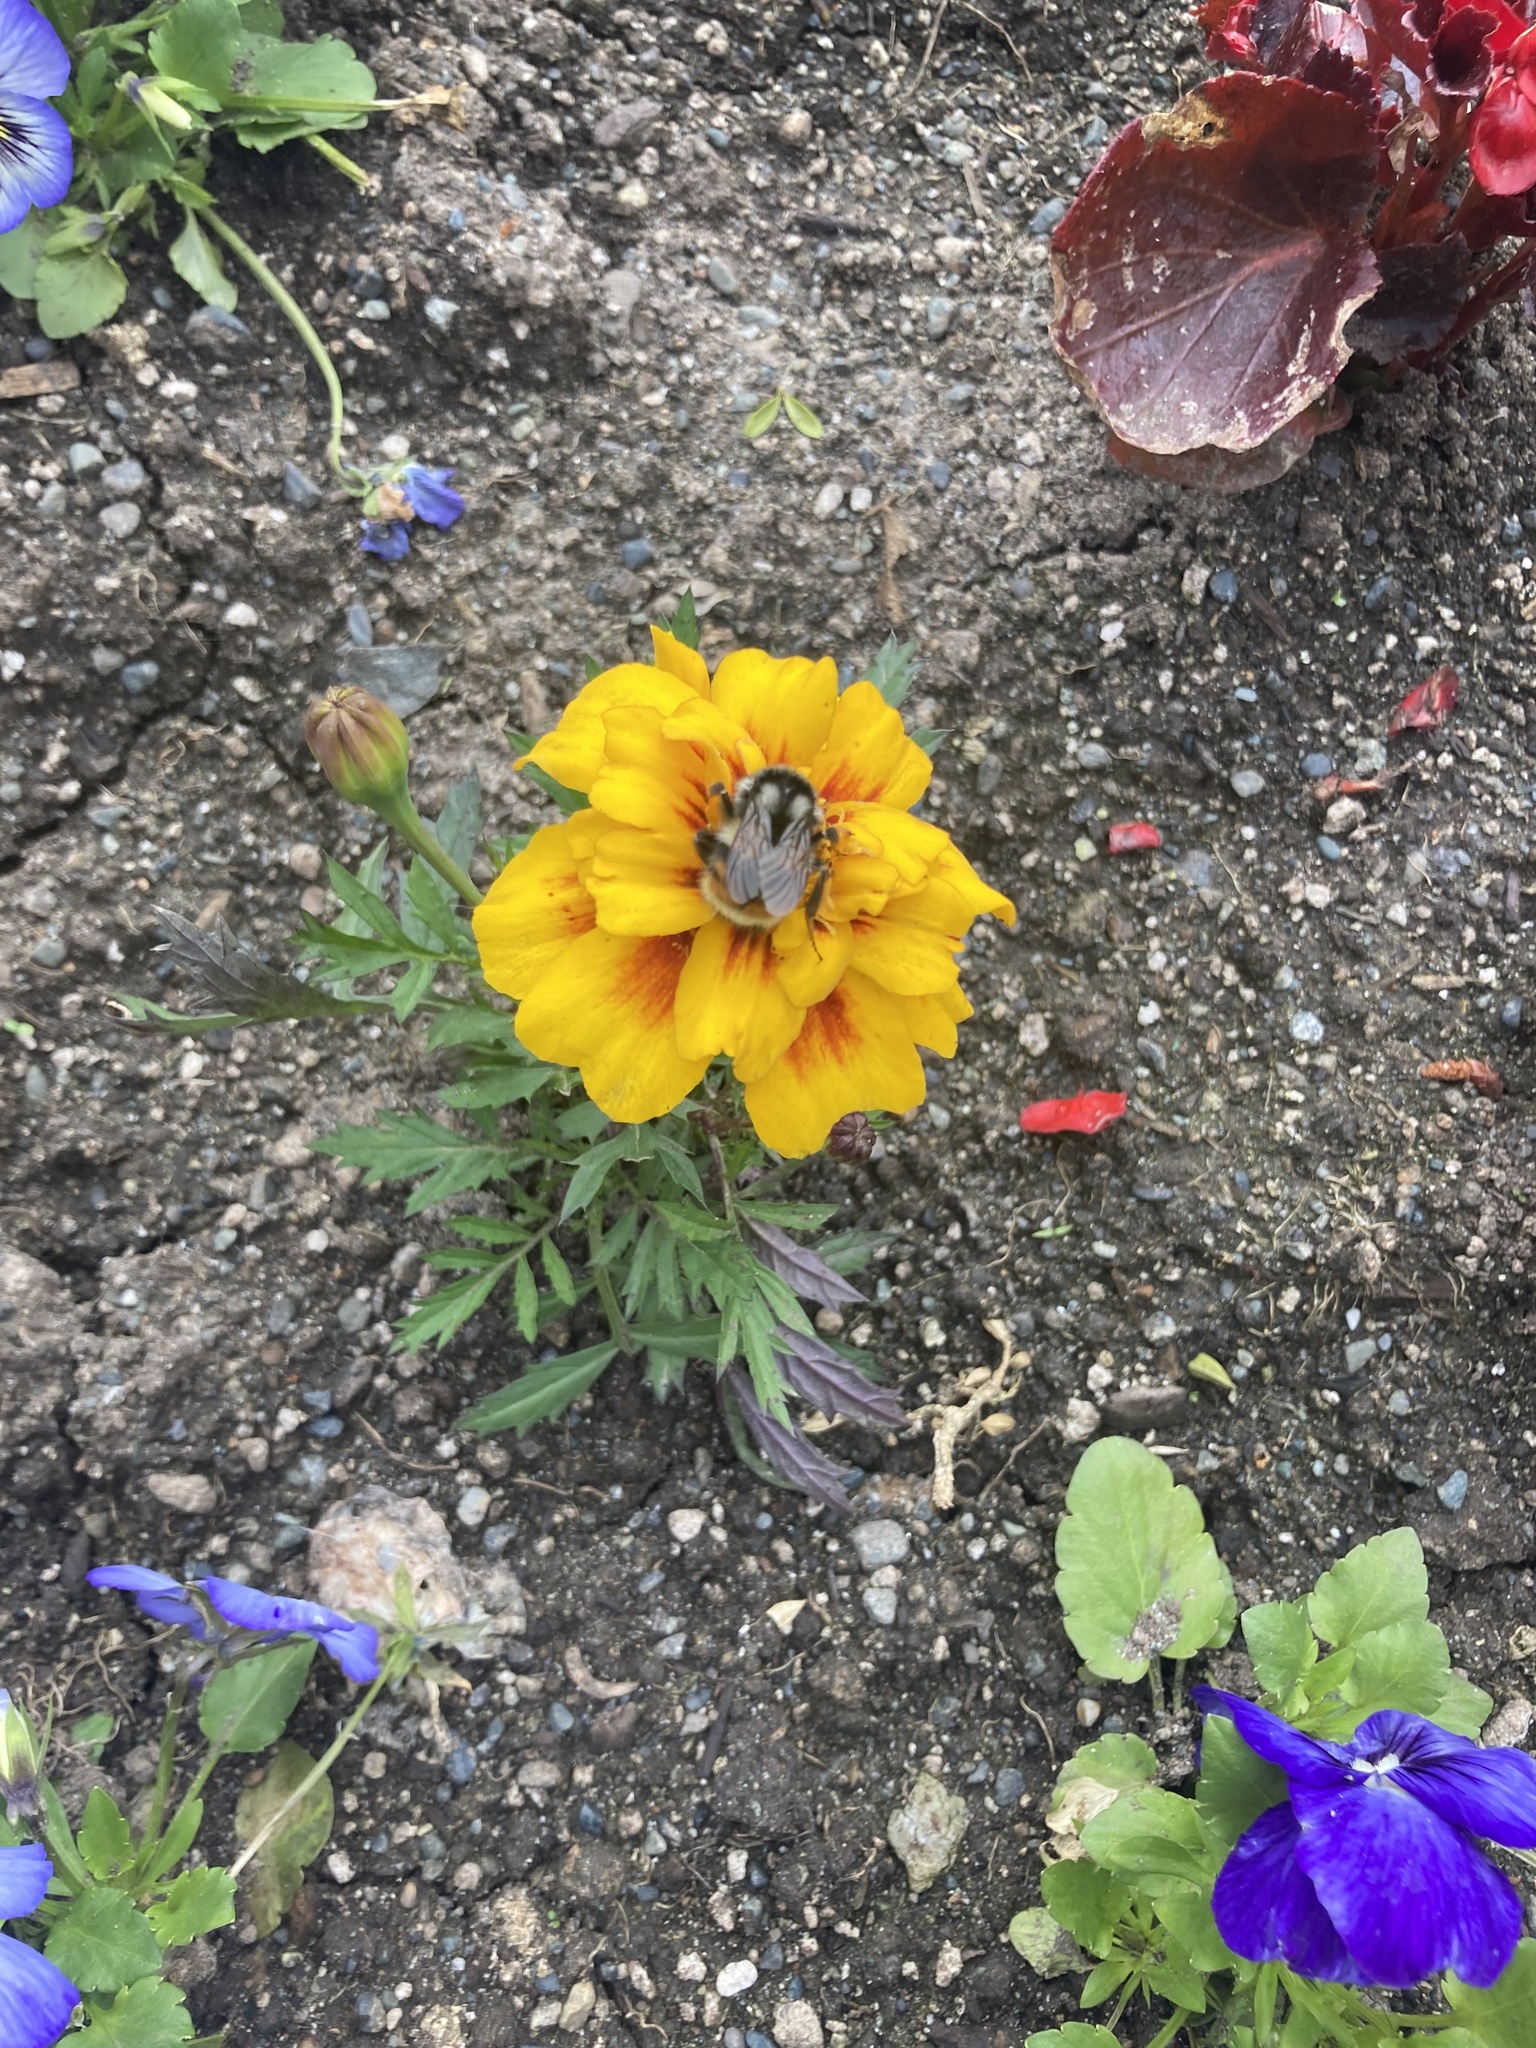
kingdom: Animalia
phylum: Arthropoda
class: Insecta
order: Hymenoptera
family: Apidae
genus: Bombus
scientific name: Bombus vancouverensis
